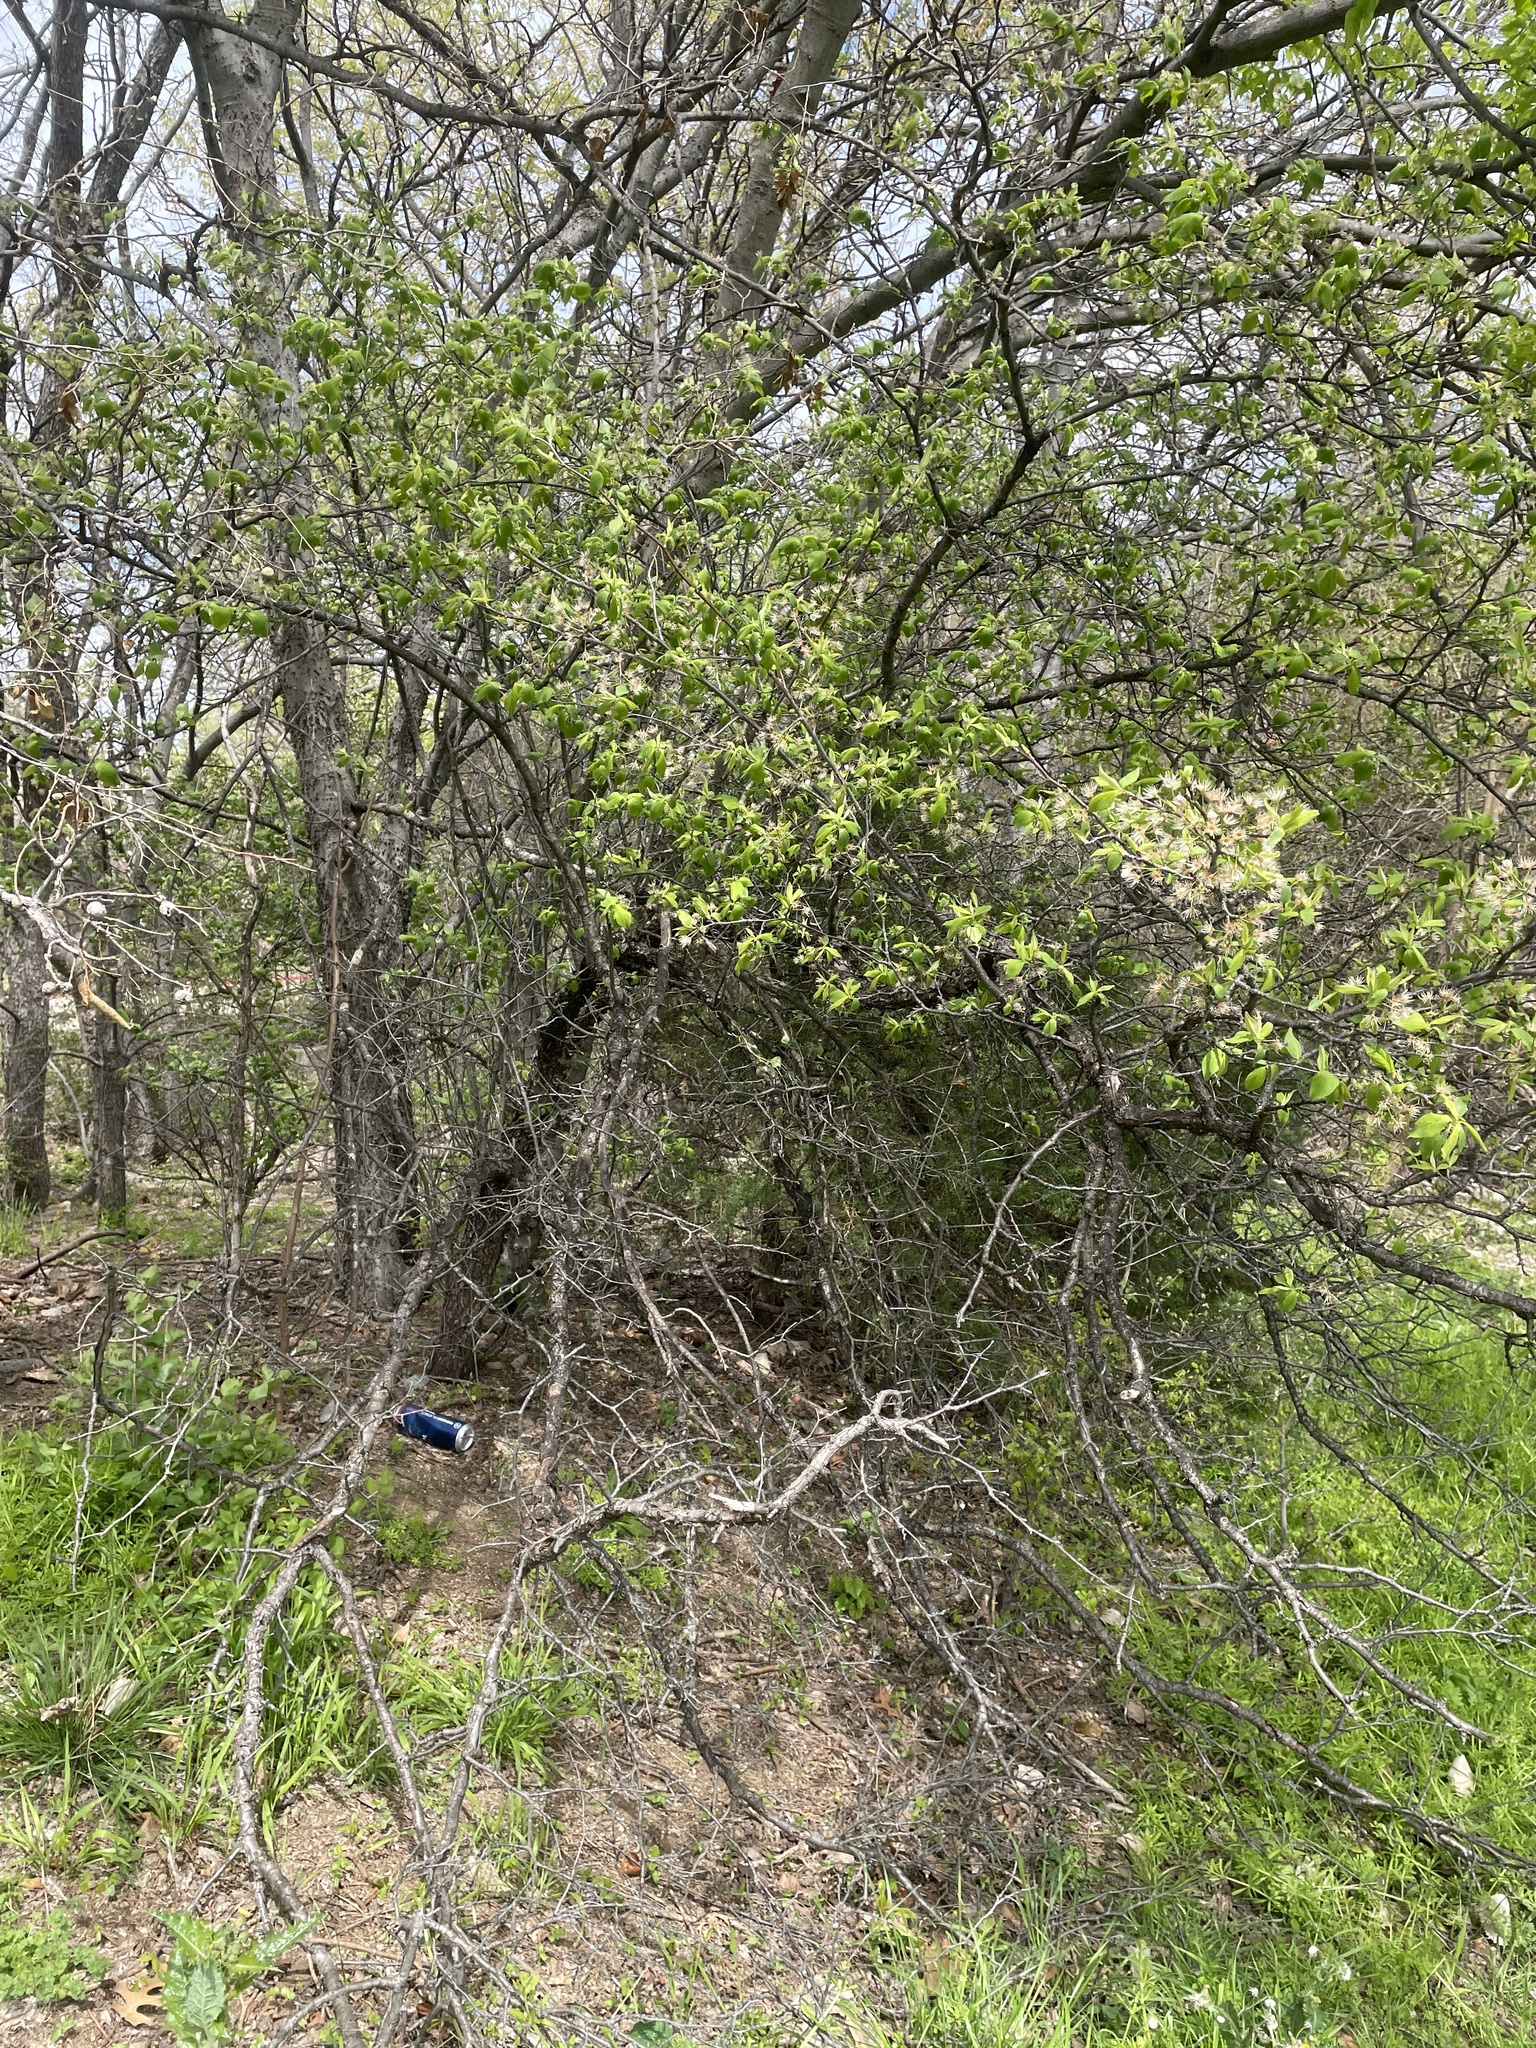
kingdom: Plantae
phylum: Tracheophyta
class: Magnoliopsida
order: Rosales
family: Rosaceae
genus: Prunus
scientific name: Prunus mexicana
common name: Mexican plum
